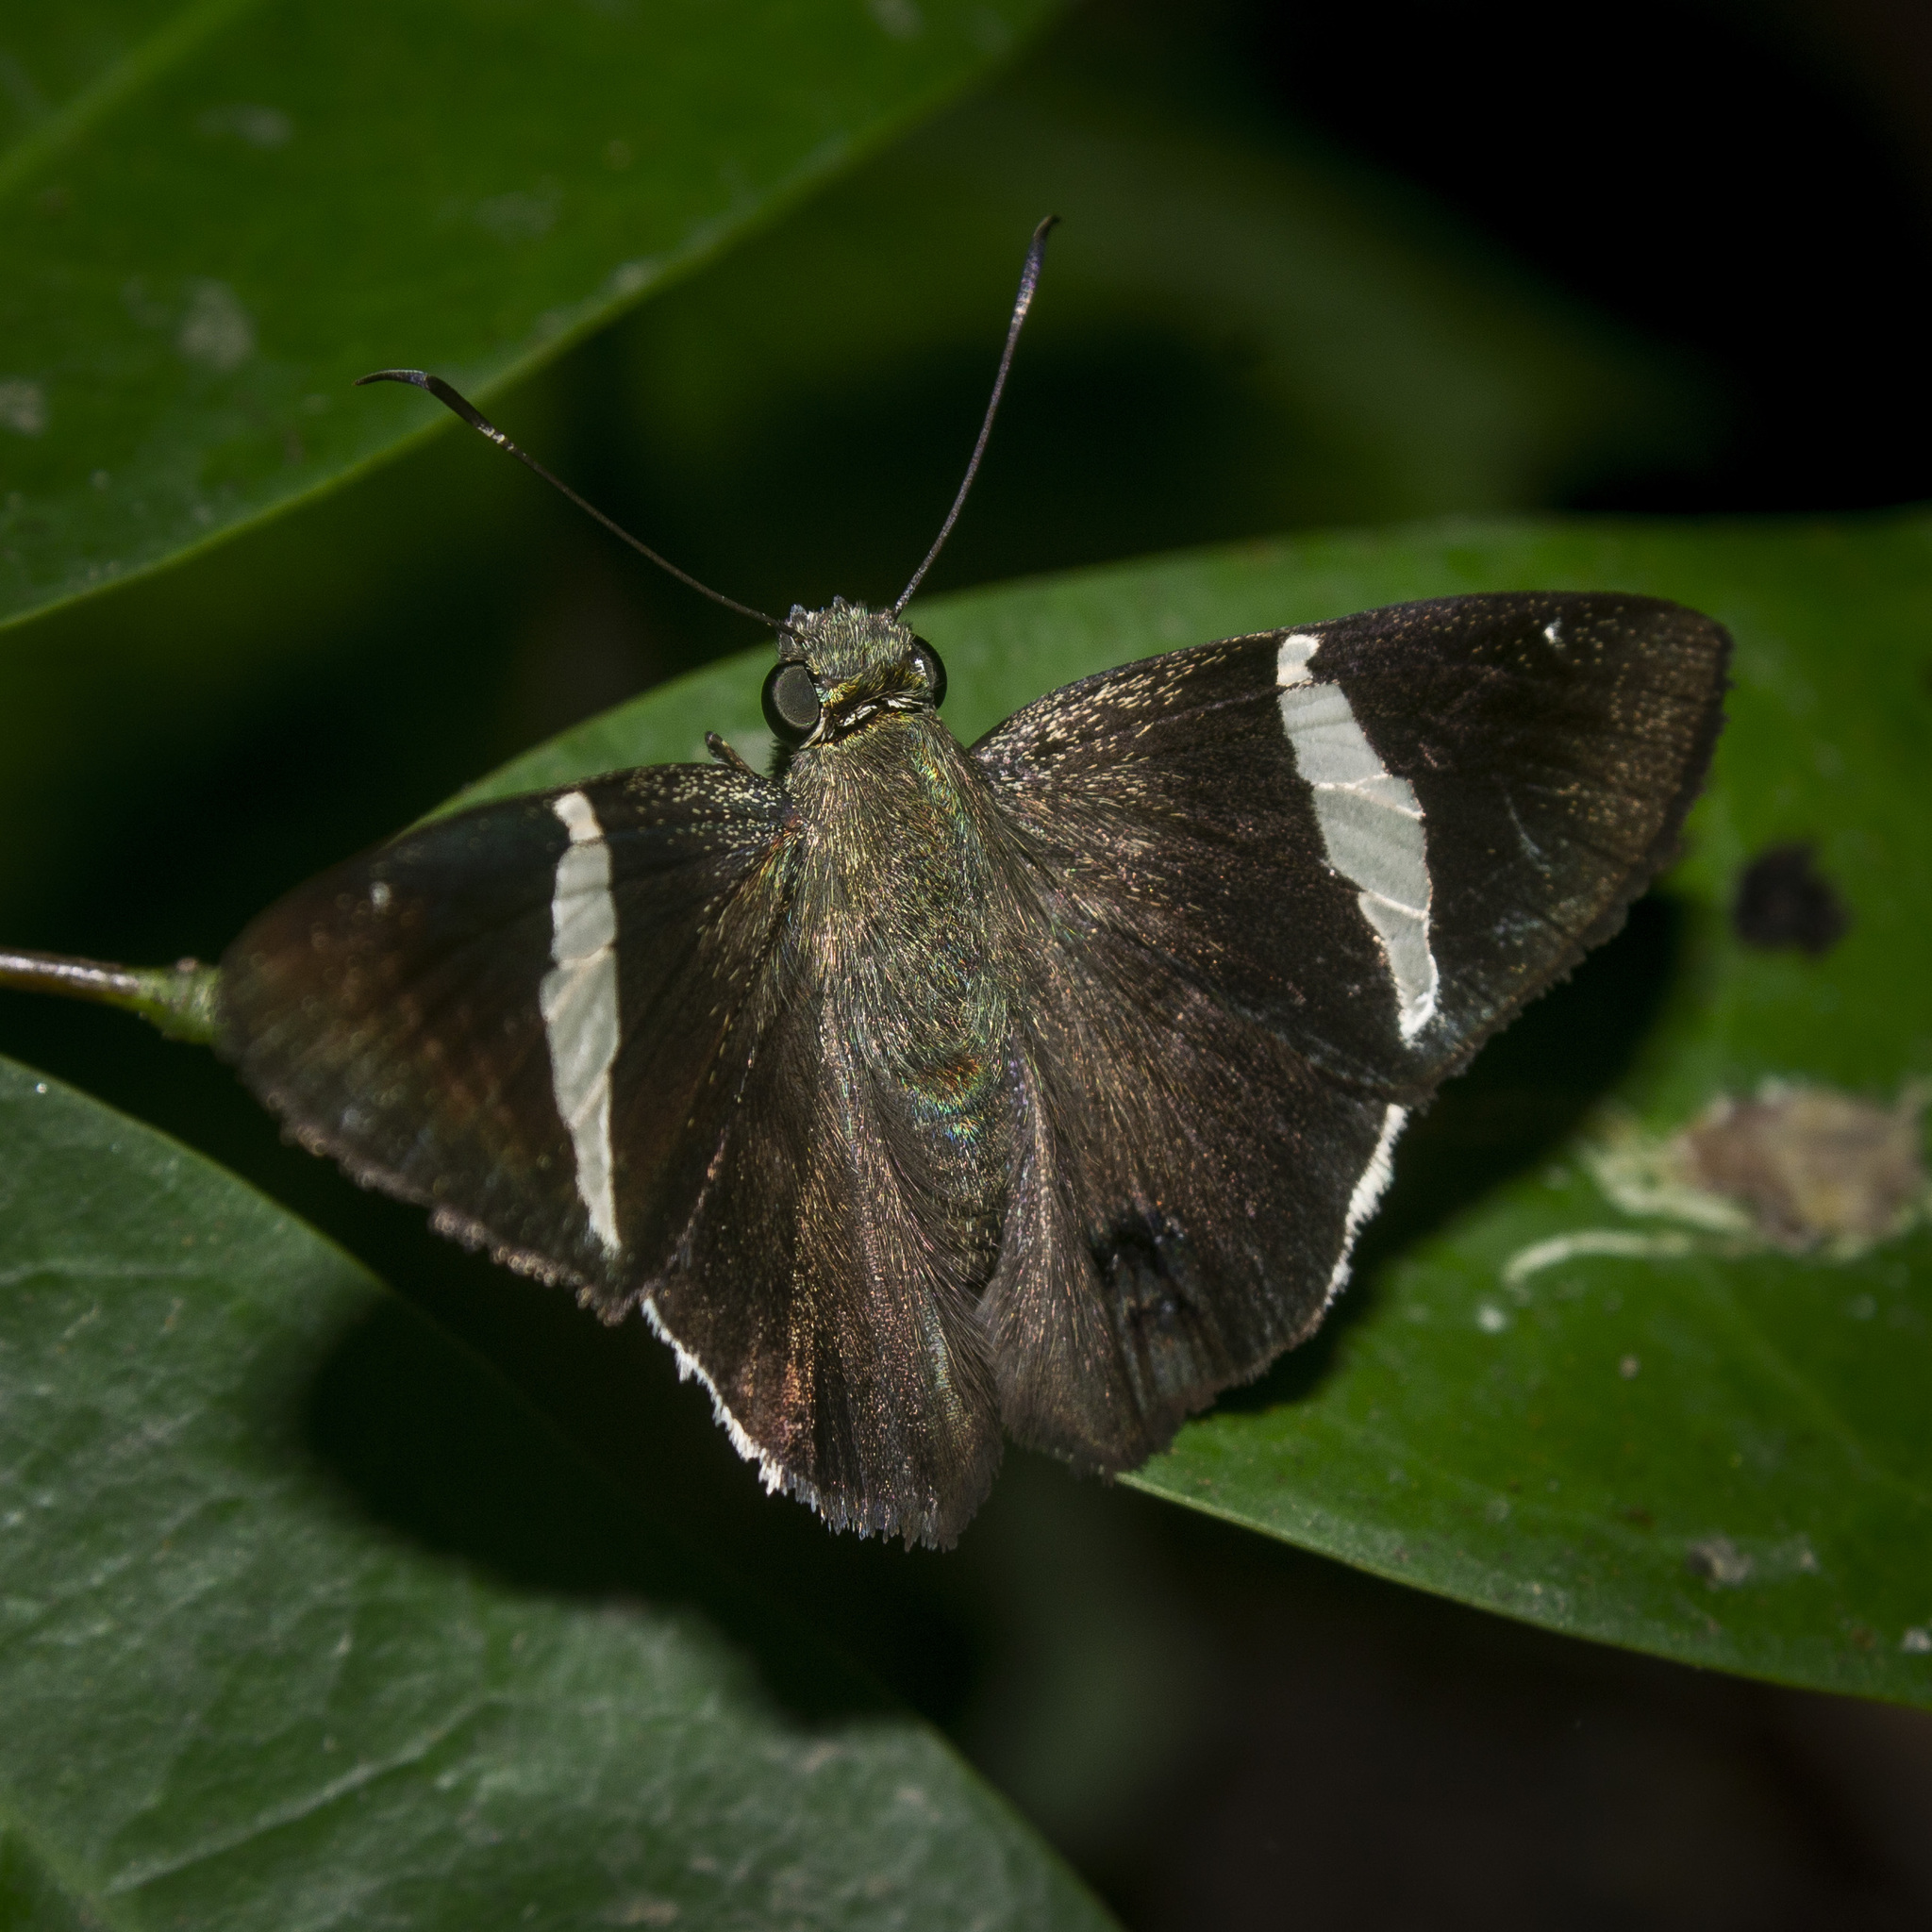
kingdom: Animalia
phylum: Arthropoda
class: Insecta
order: Lepidoptera
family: Hesperiidae
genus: Autochton
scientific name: Autochton longipennis
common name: Spike banded-skipper
